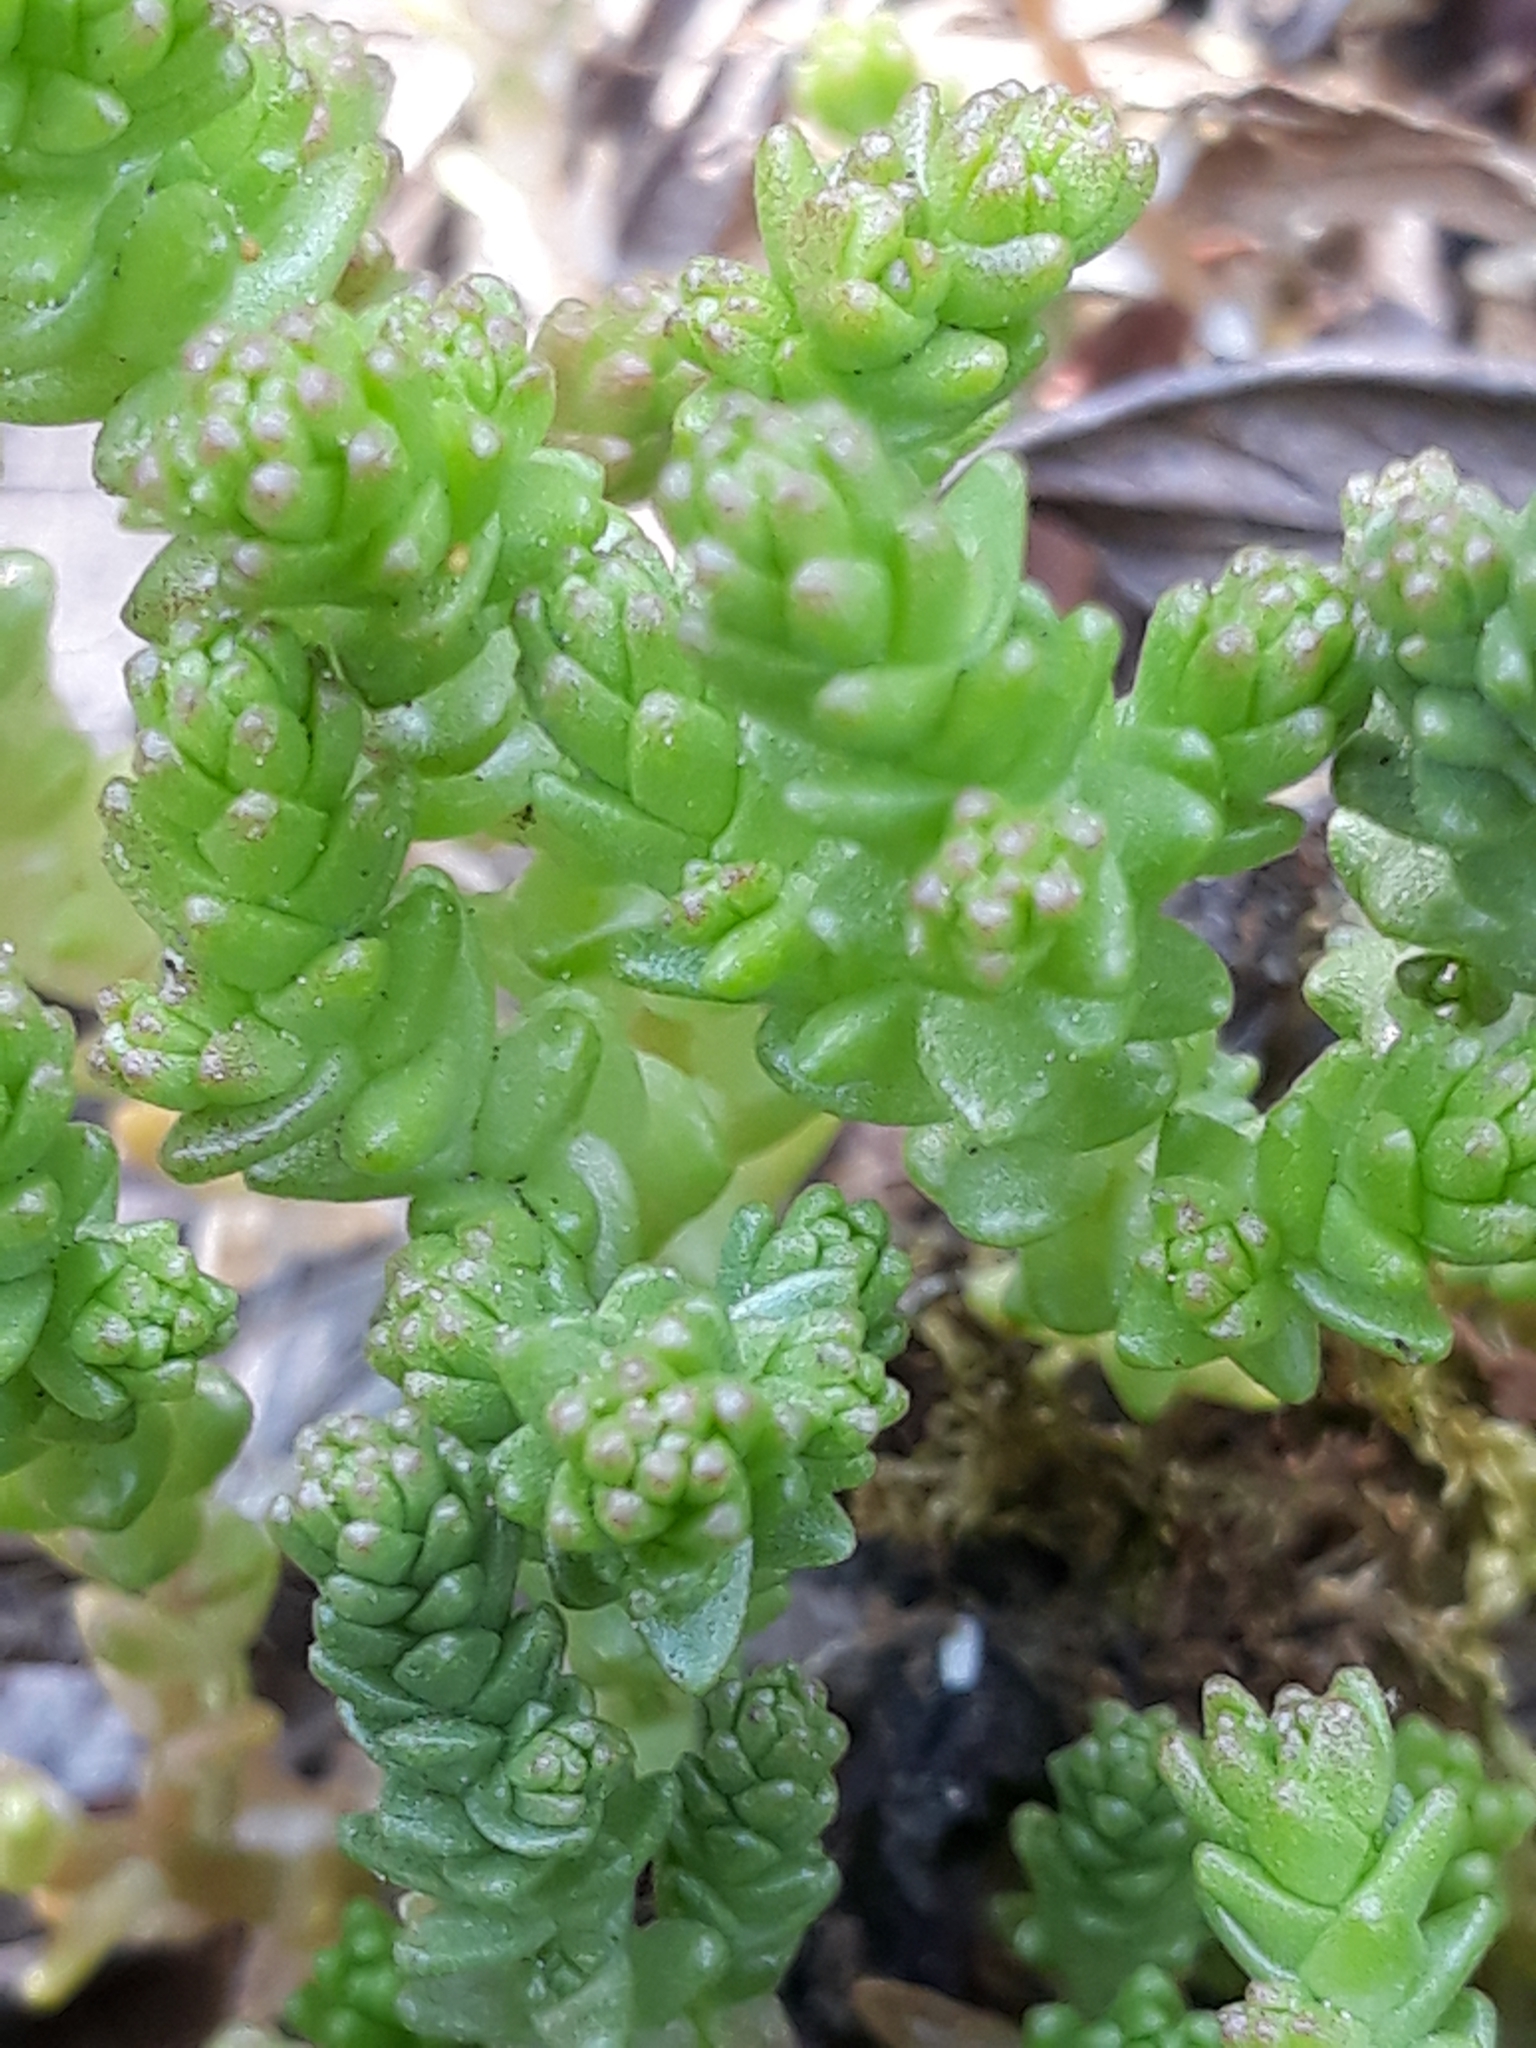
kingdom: Plantae
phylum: Tracheophyta
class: Magnoliopsida
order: Saxifragales
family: Crassulaceae
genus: Sedum
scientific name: Sedum acre
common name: Biting stonecrop
